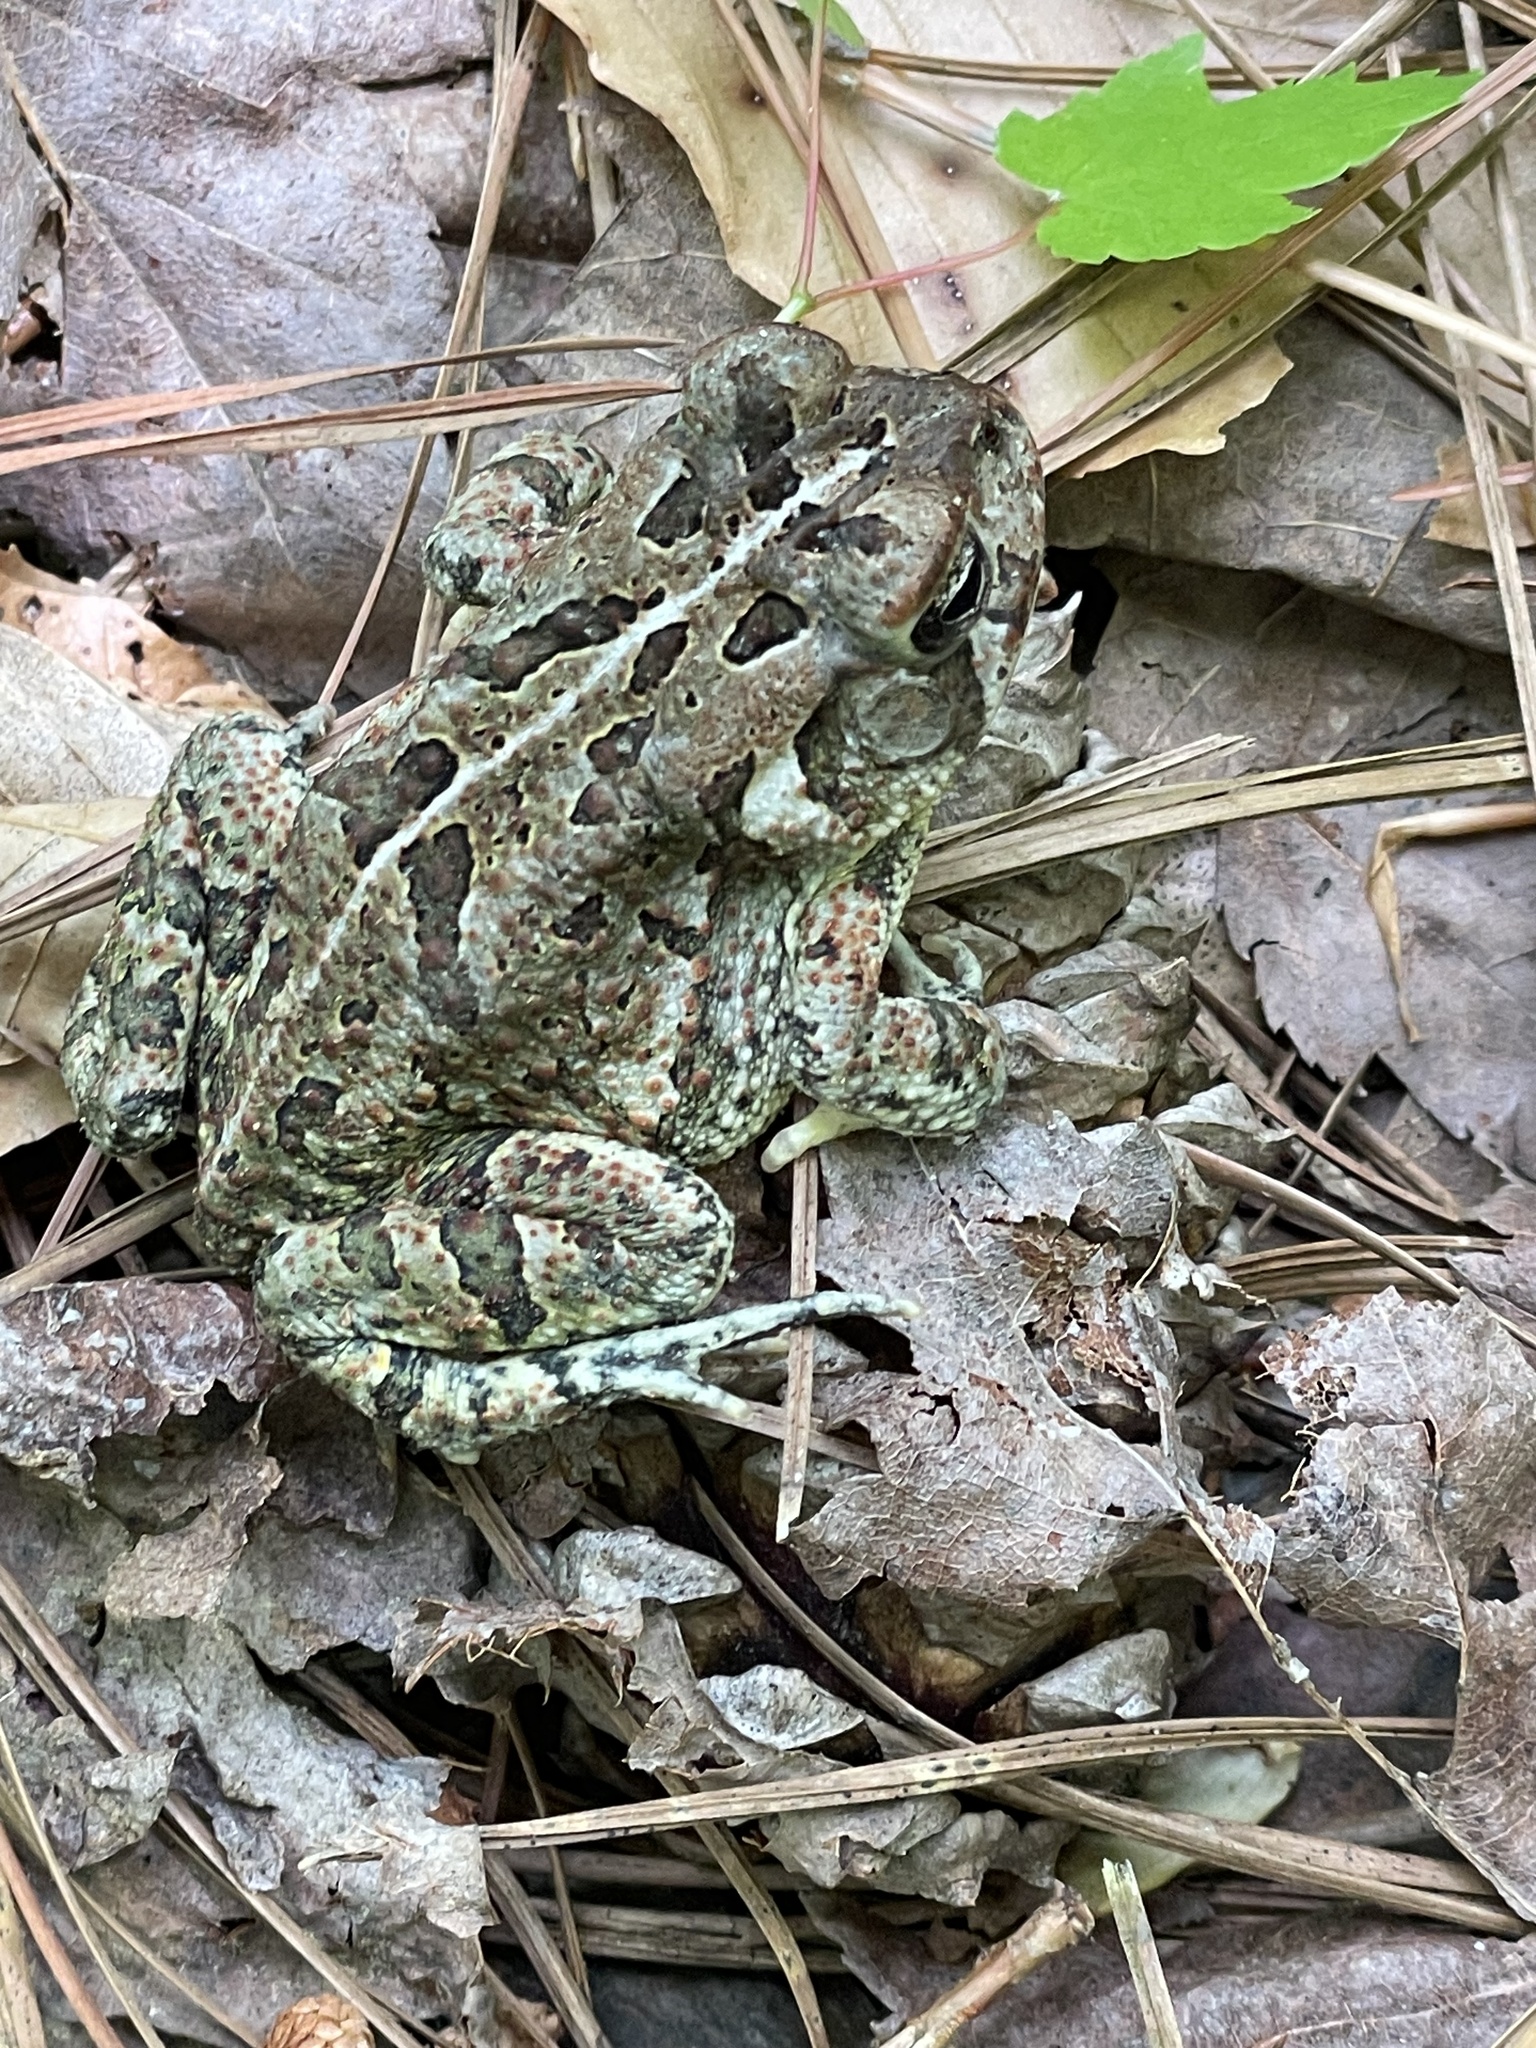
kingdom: Animalia
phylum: Chordata
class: Amphibia
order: Anura
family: Bufonidae
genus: Anaxyrus
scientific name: Anaxyrus fowleri
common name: Fowler's toad
